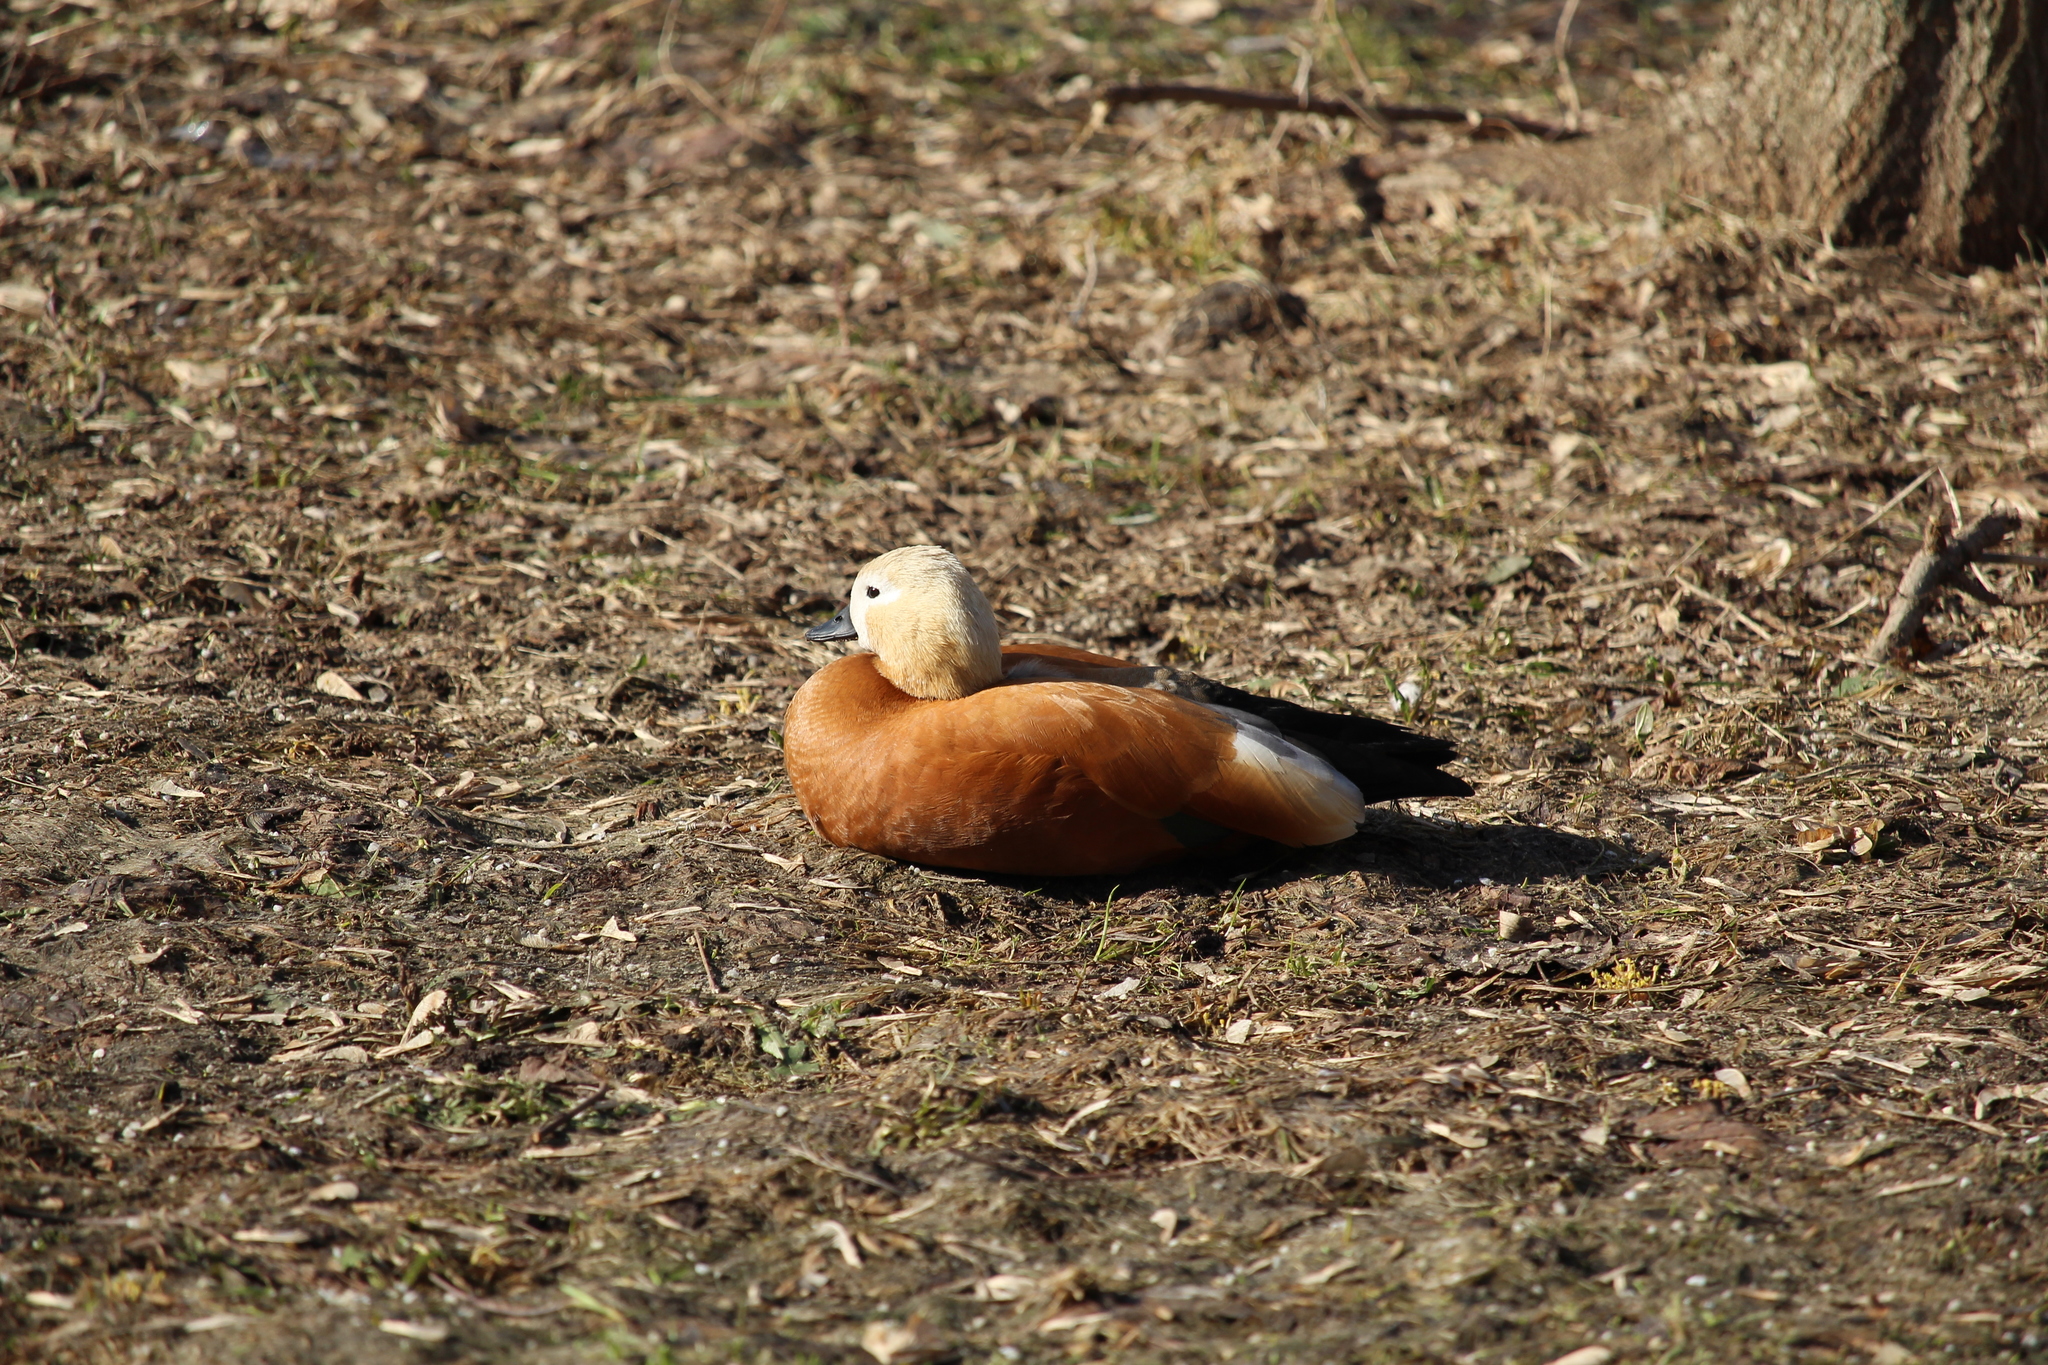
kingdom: Animalia
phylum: Chordata
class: Aves
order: Anseriformes
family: Anatidae
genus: Tadorna
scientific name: Tadorna ferruginea
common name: Ruddy shelduck
